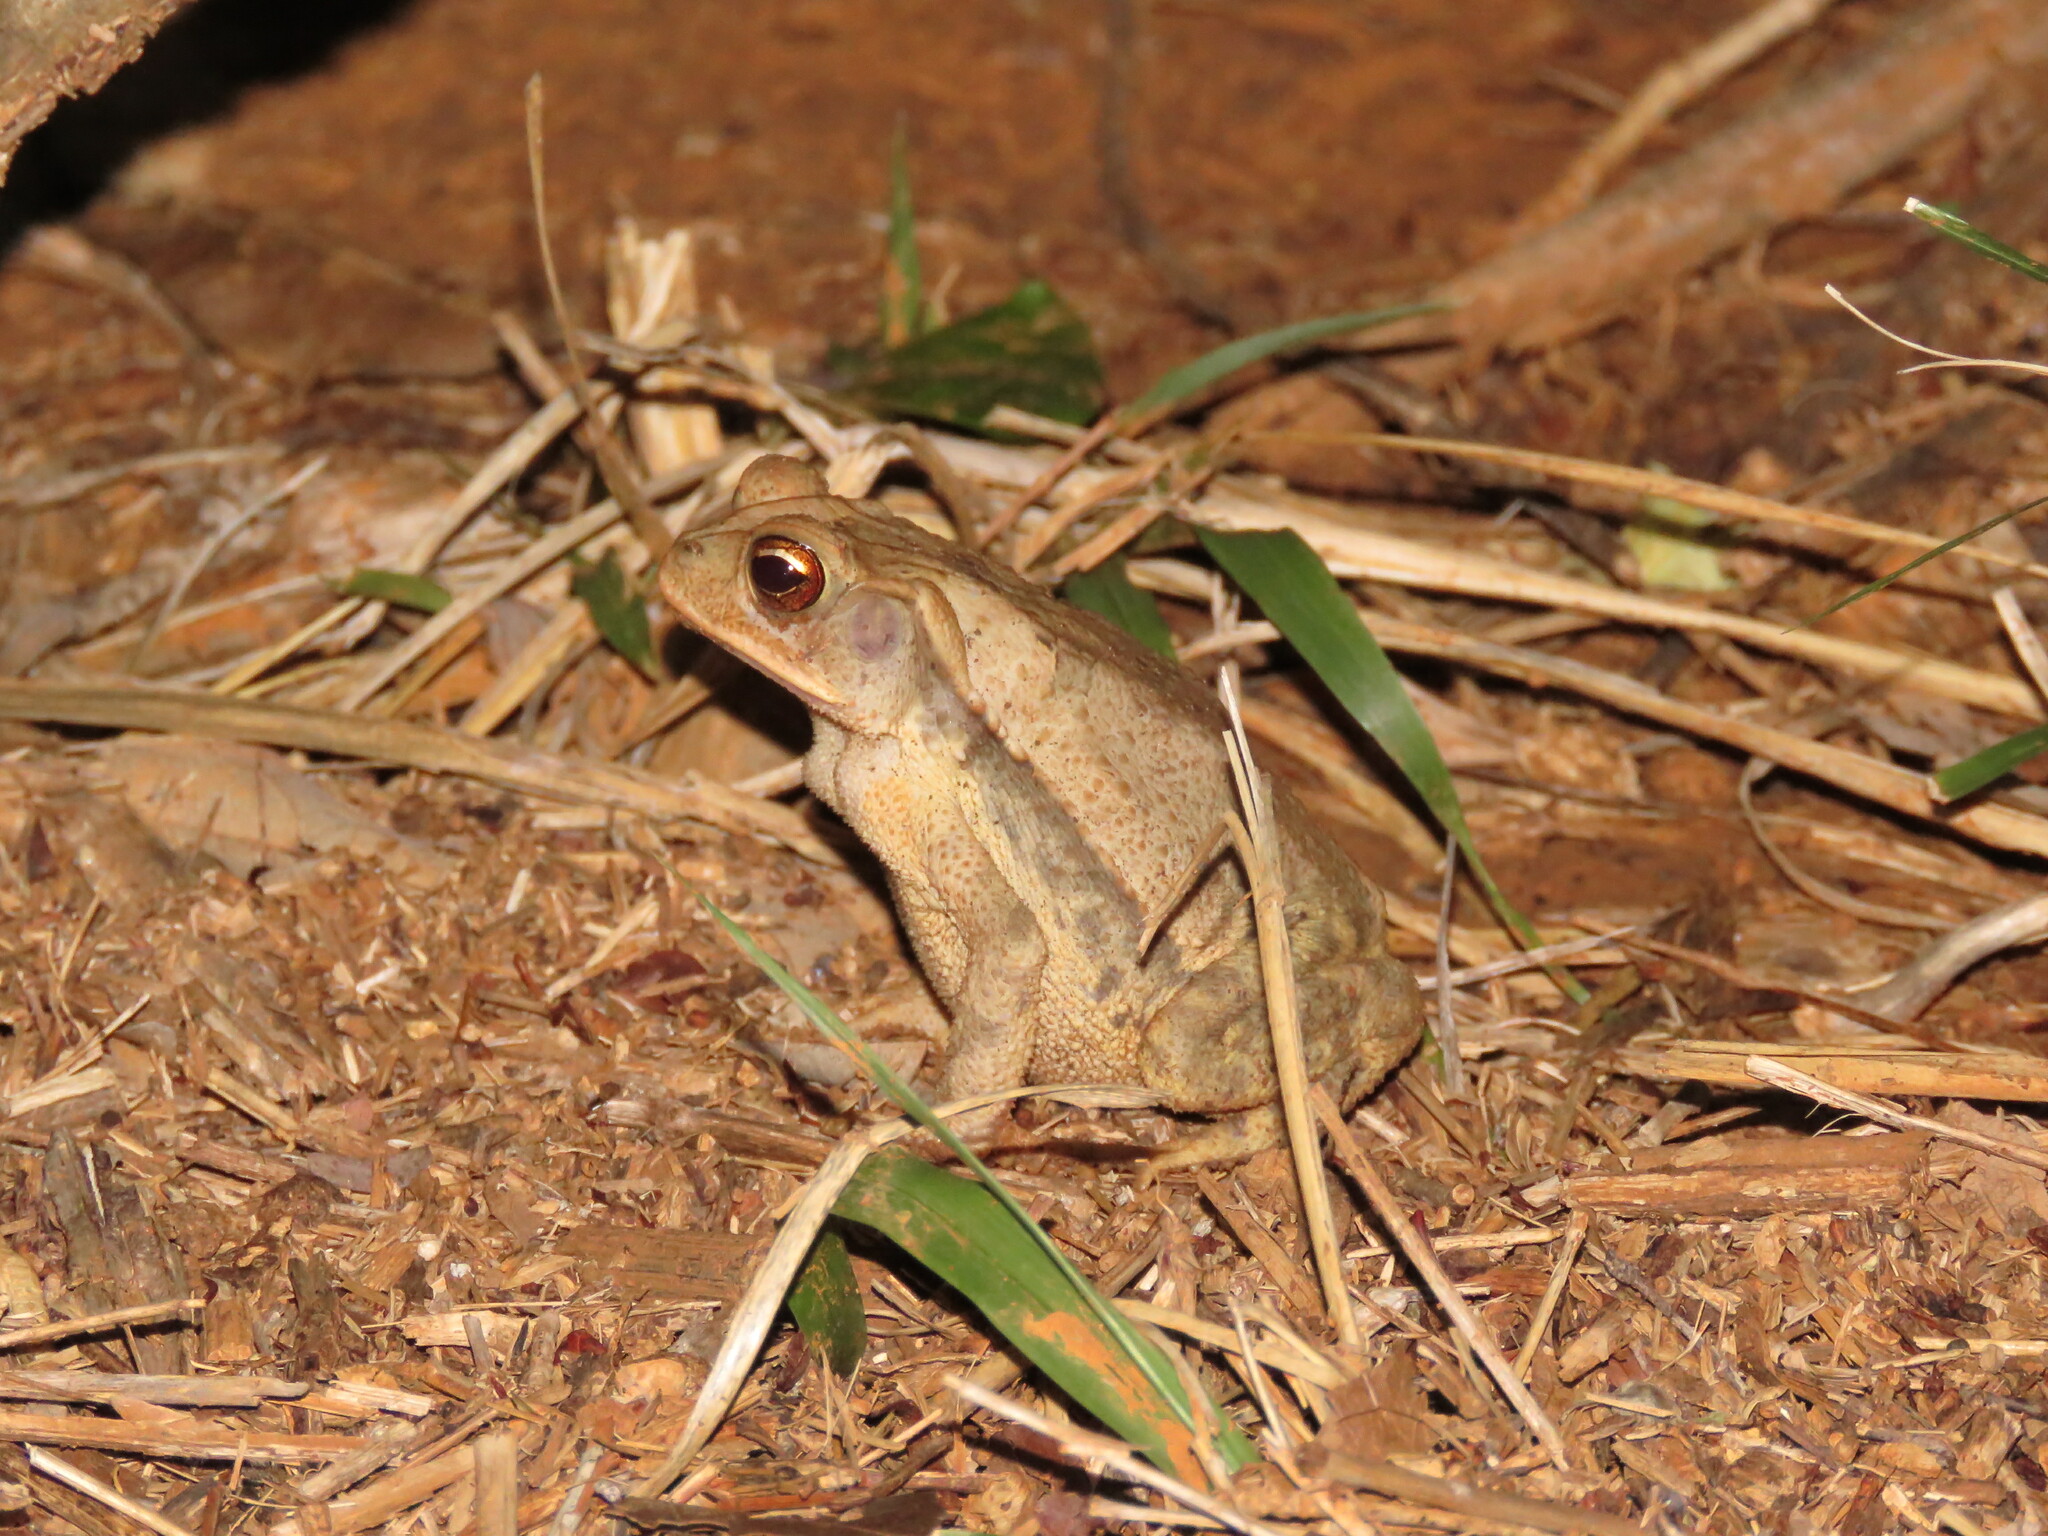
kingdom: Animalia
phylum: Chordata
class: Amphibia
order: Anura
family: Bufonidae
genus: Rhinella
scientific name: Rhinella horribilis
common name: Mesoamerican cane toad
